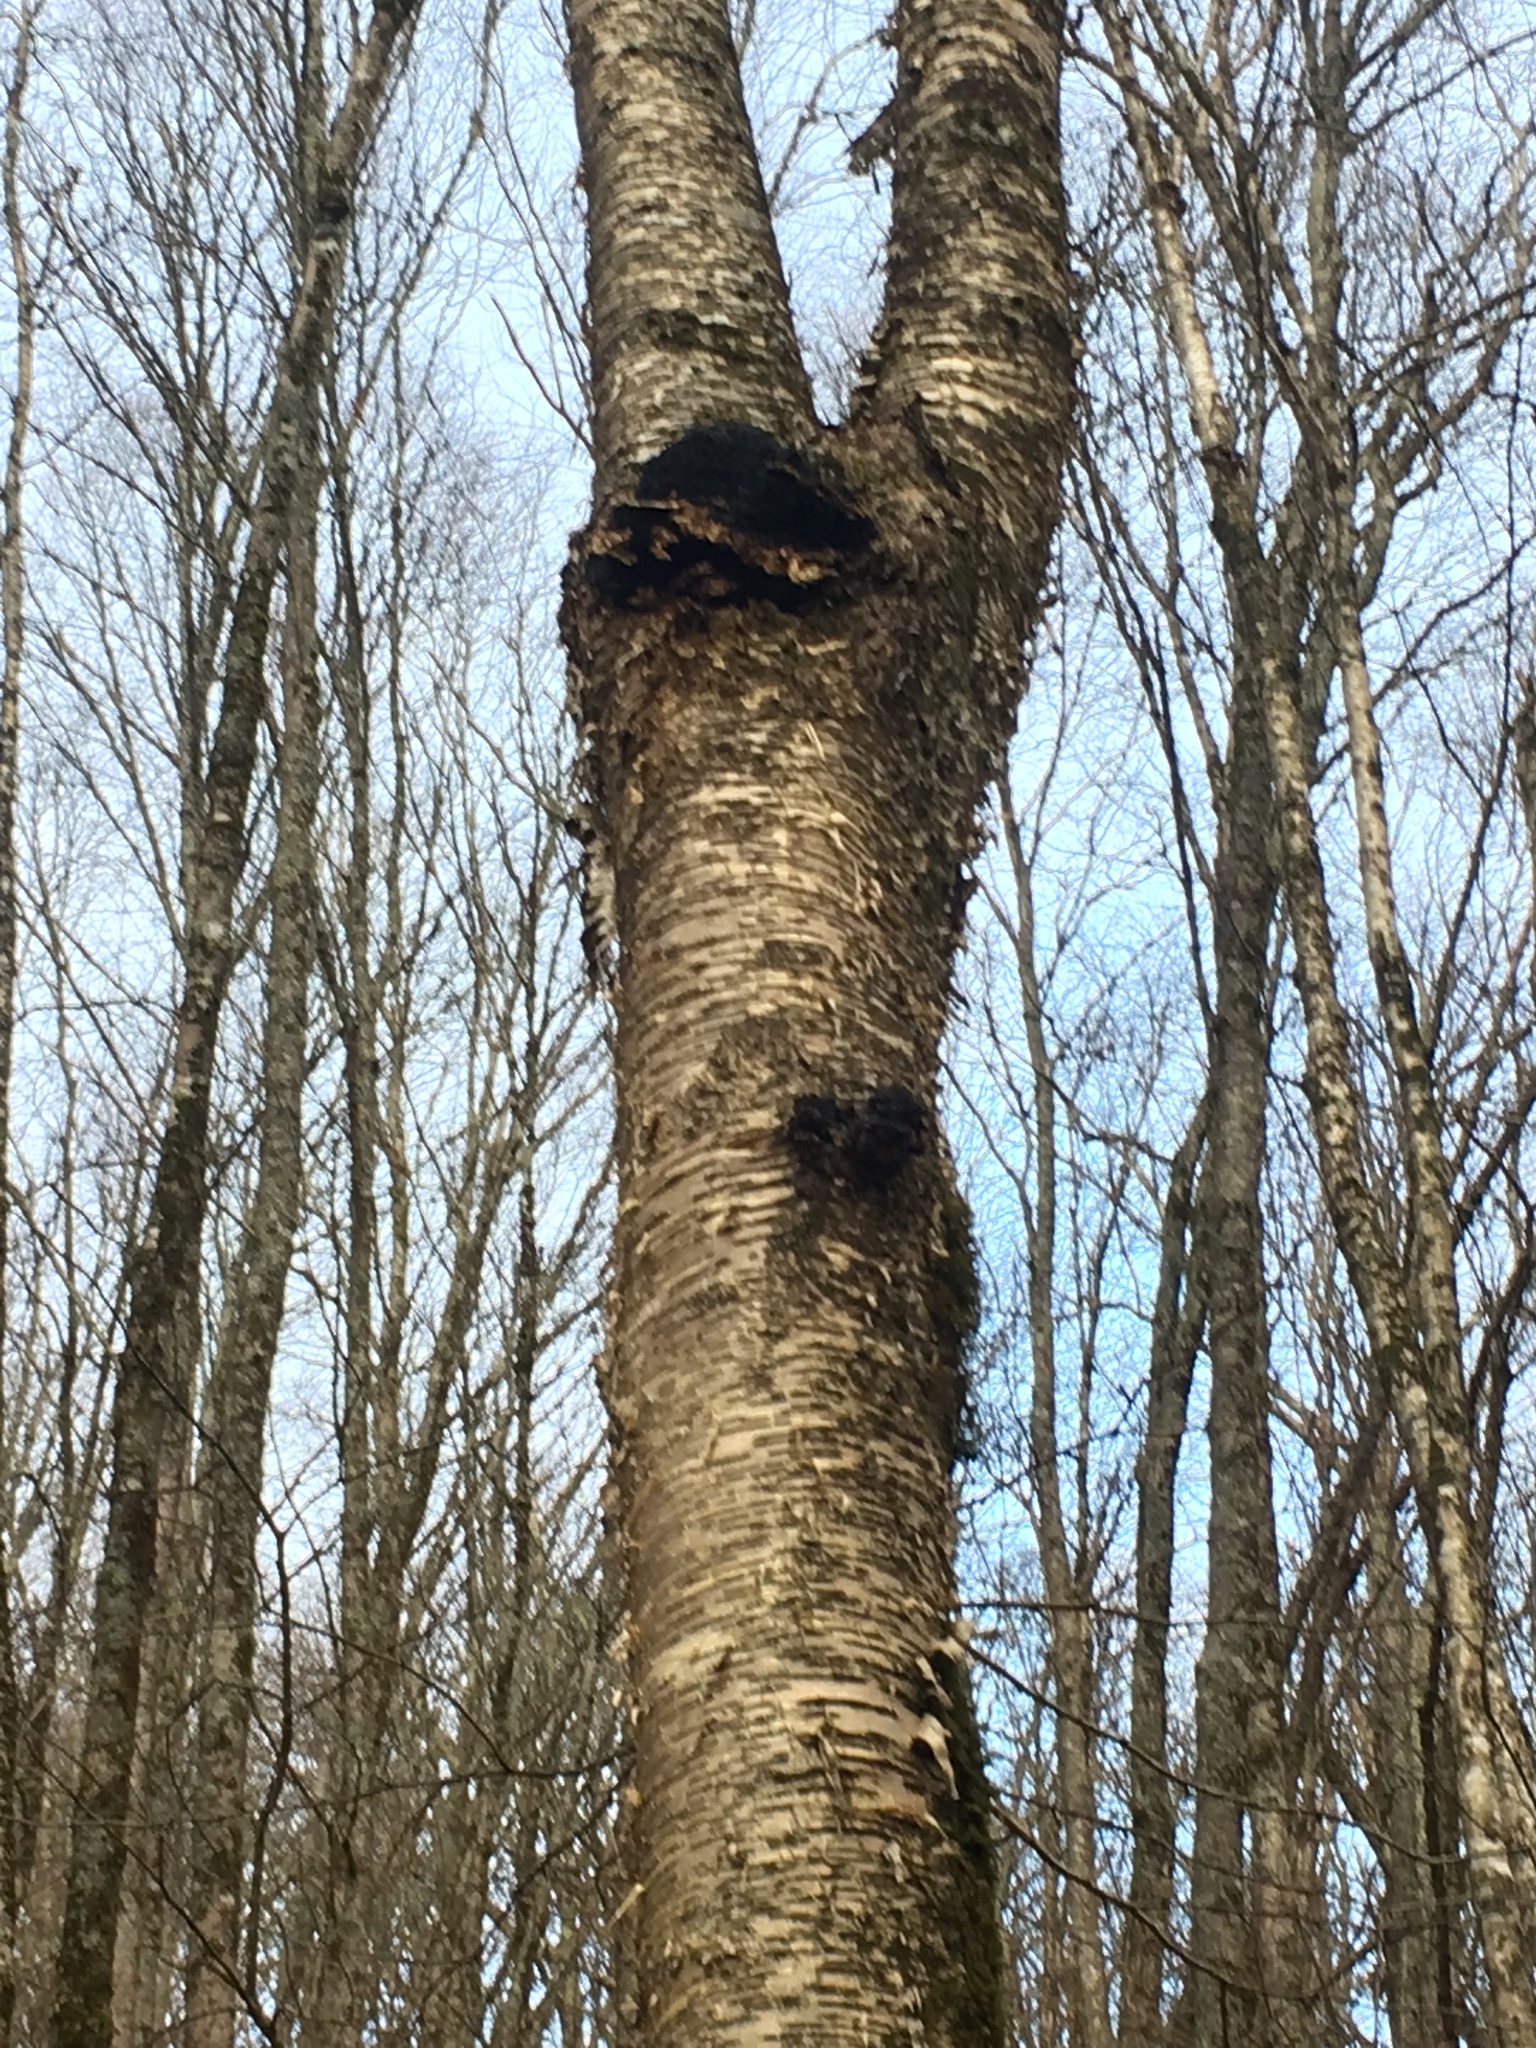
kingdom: Fungi
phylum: Basidiomycota
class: Agaricomycetes
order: Hymenochaetales
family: Hymenochaetaceae
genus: Inonotus
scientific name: Inonotus obliquus
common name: Chaga
